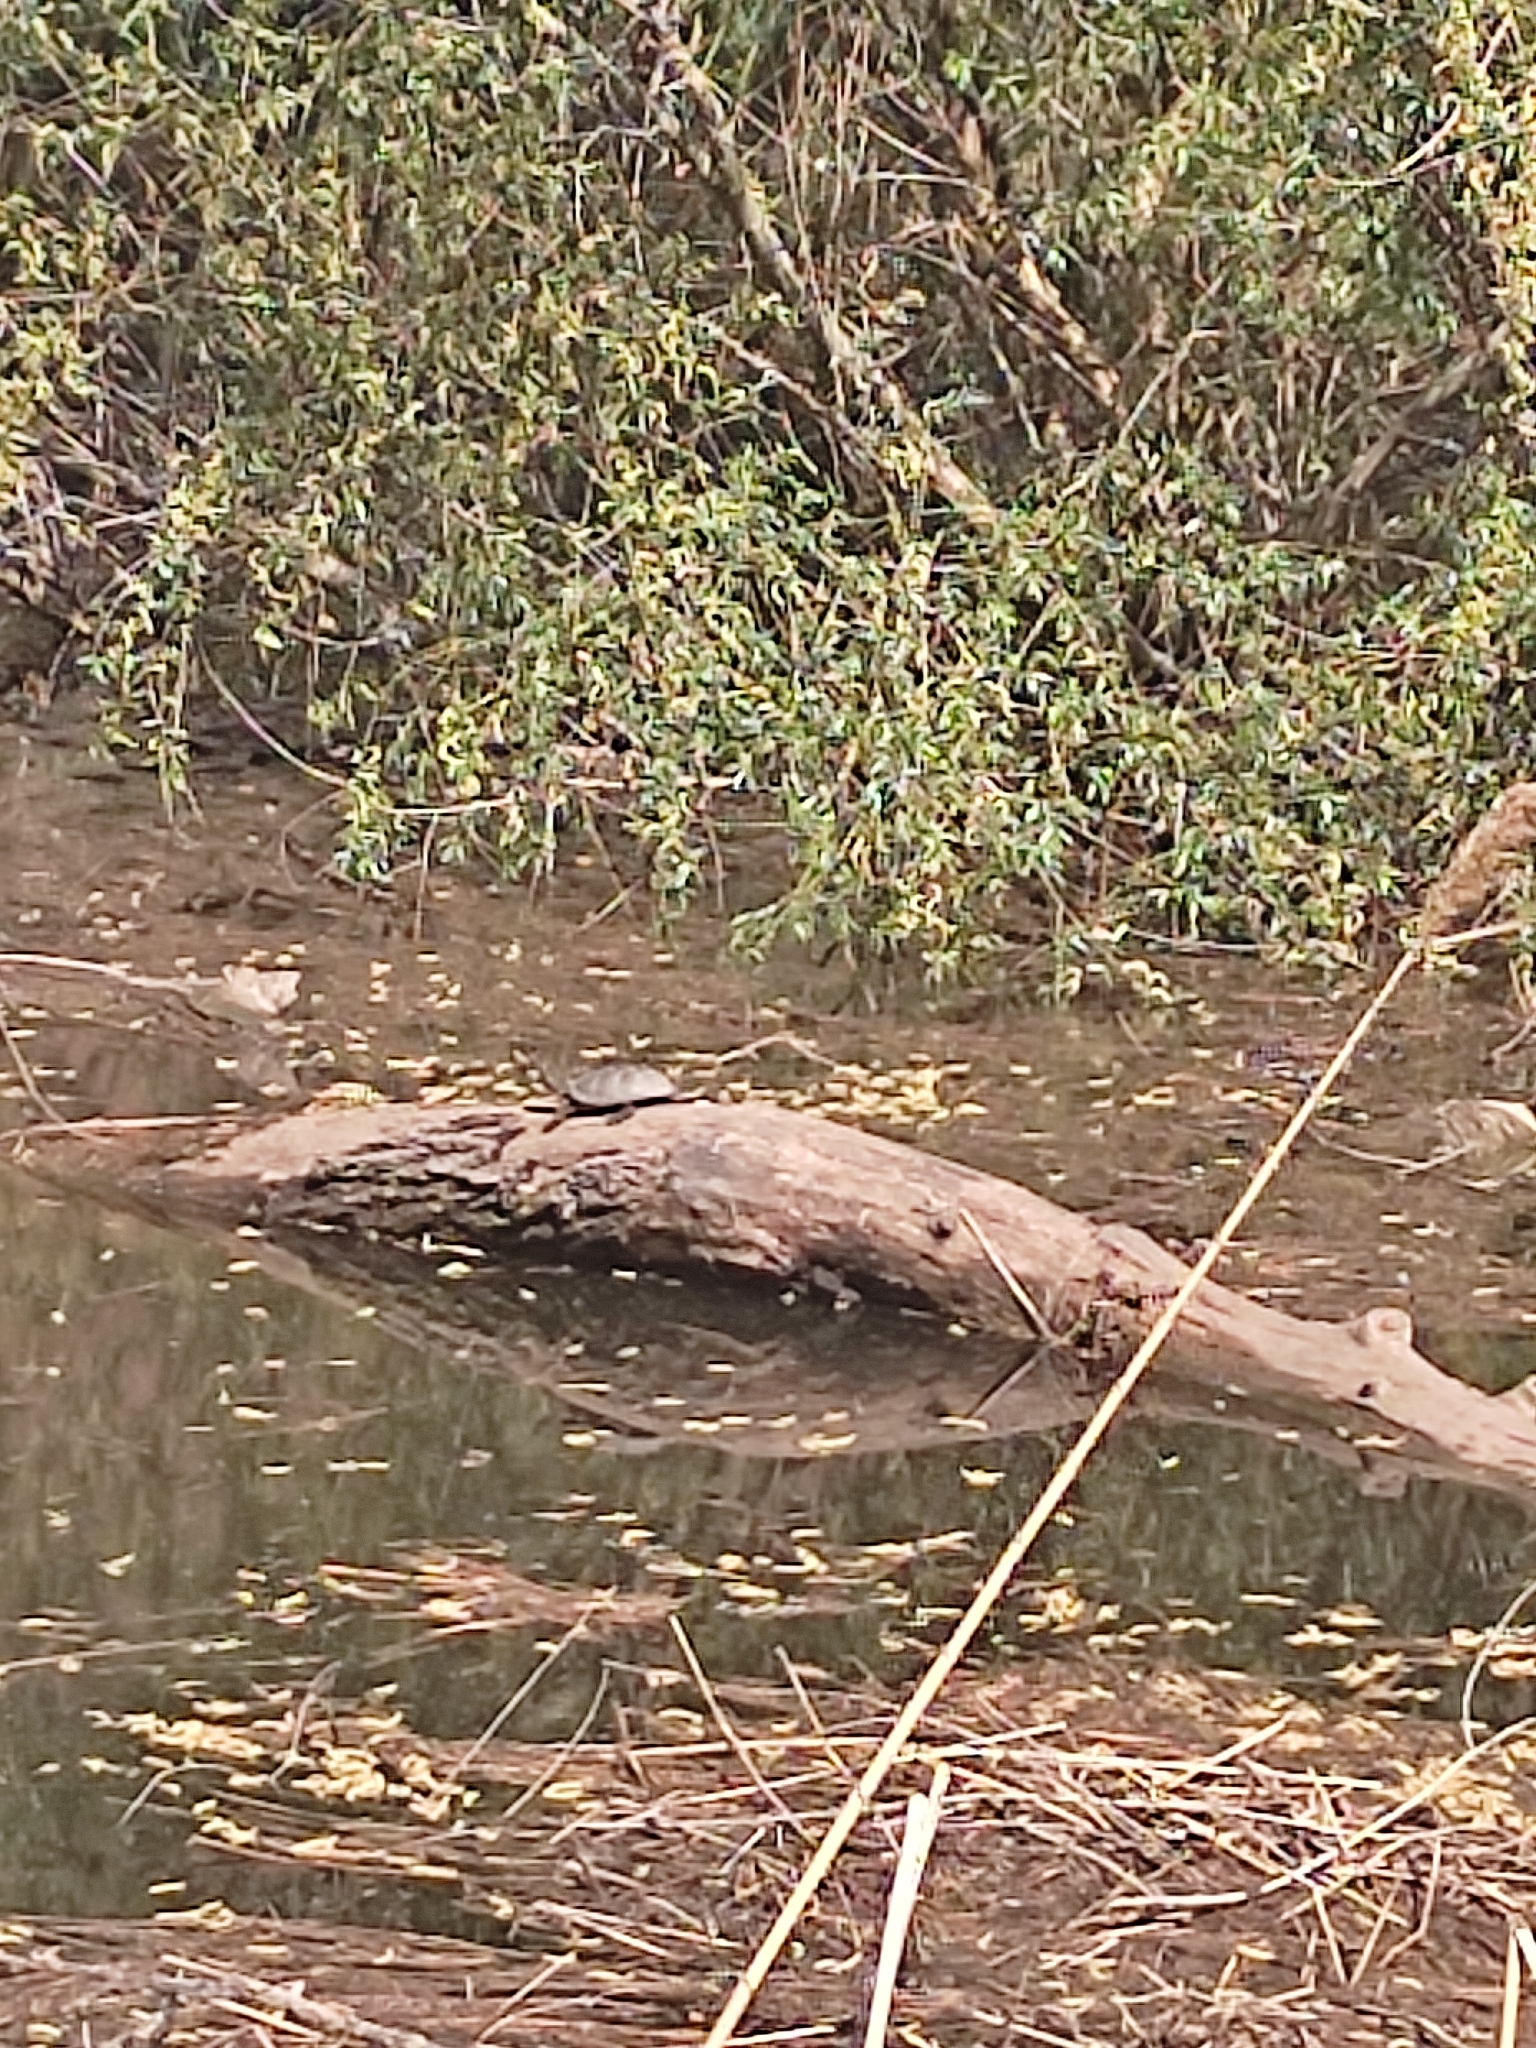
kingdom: Animalia
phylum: Chordata
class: Testudines
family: Emydidae
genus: Emys
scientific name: Emys orbicularis
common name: European pond turtle
